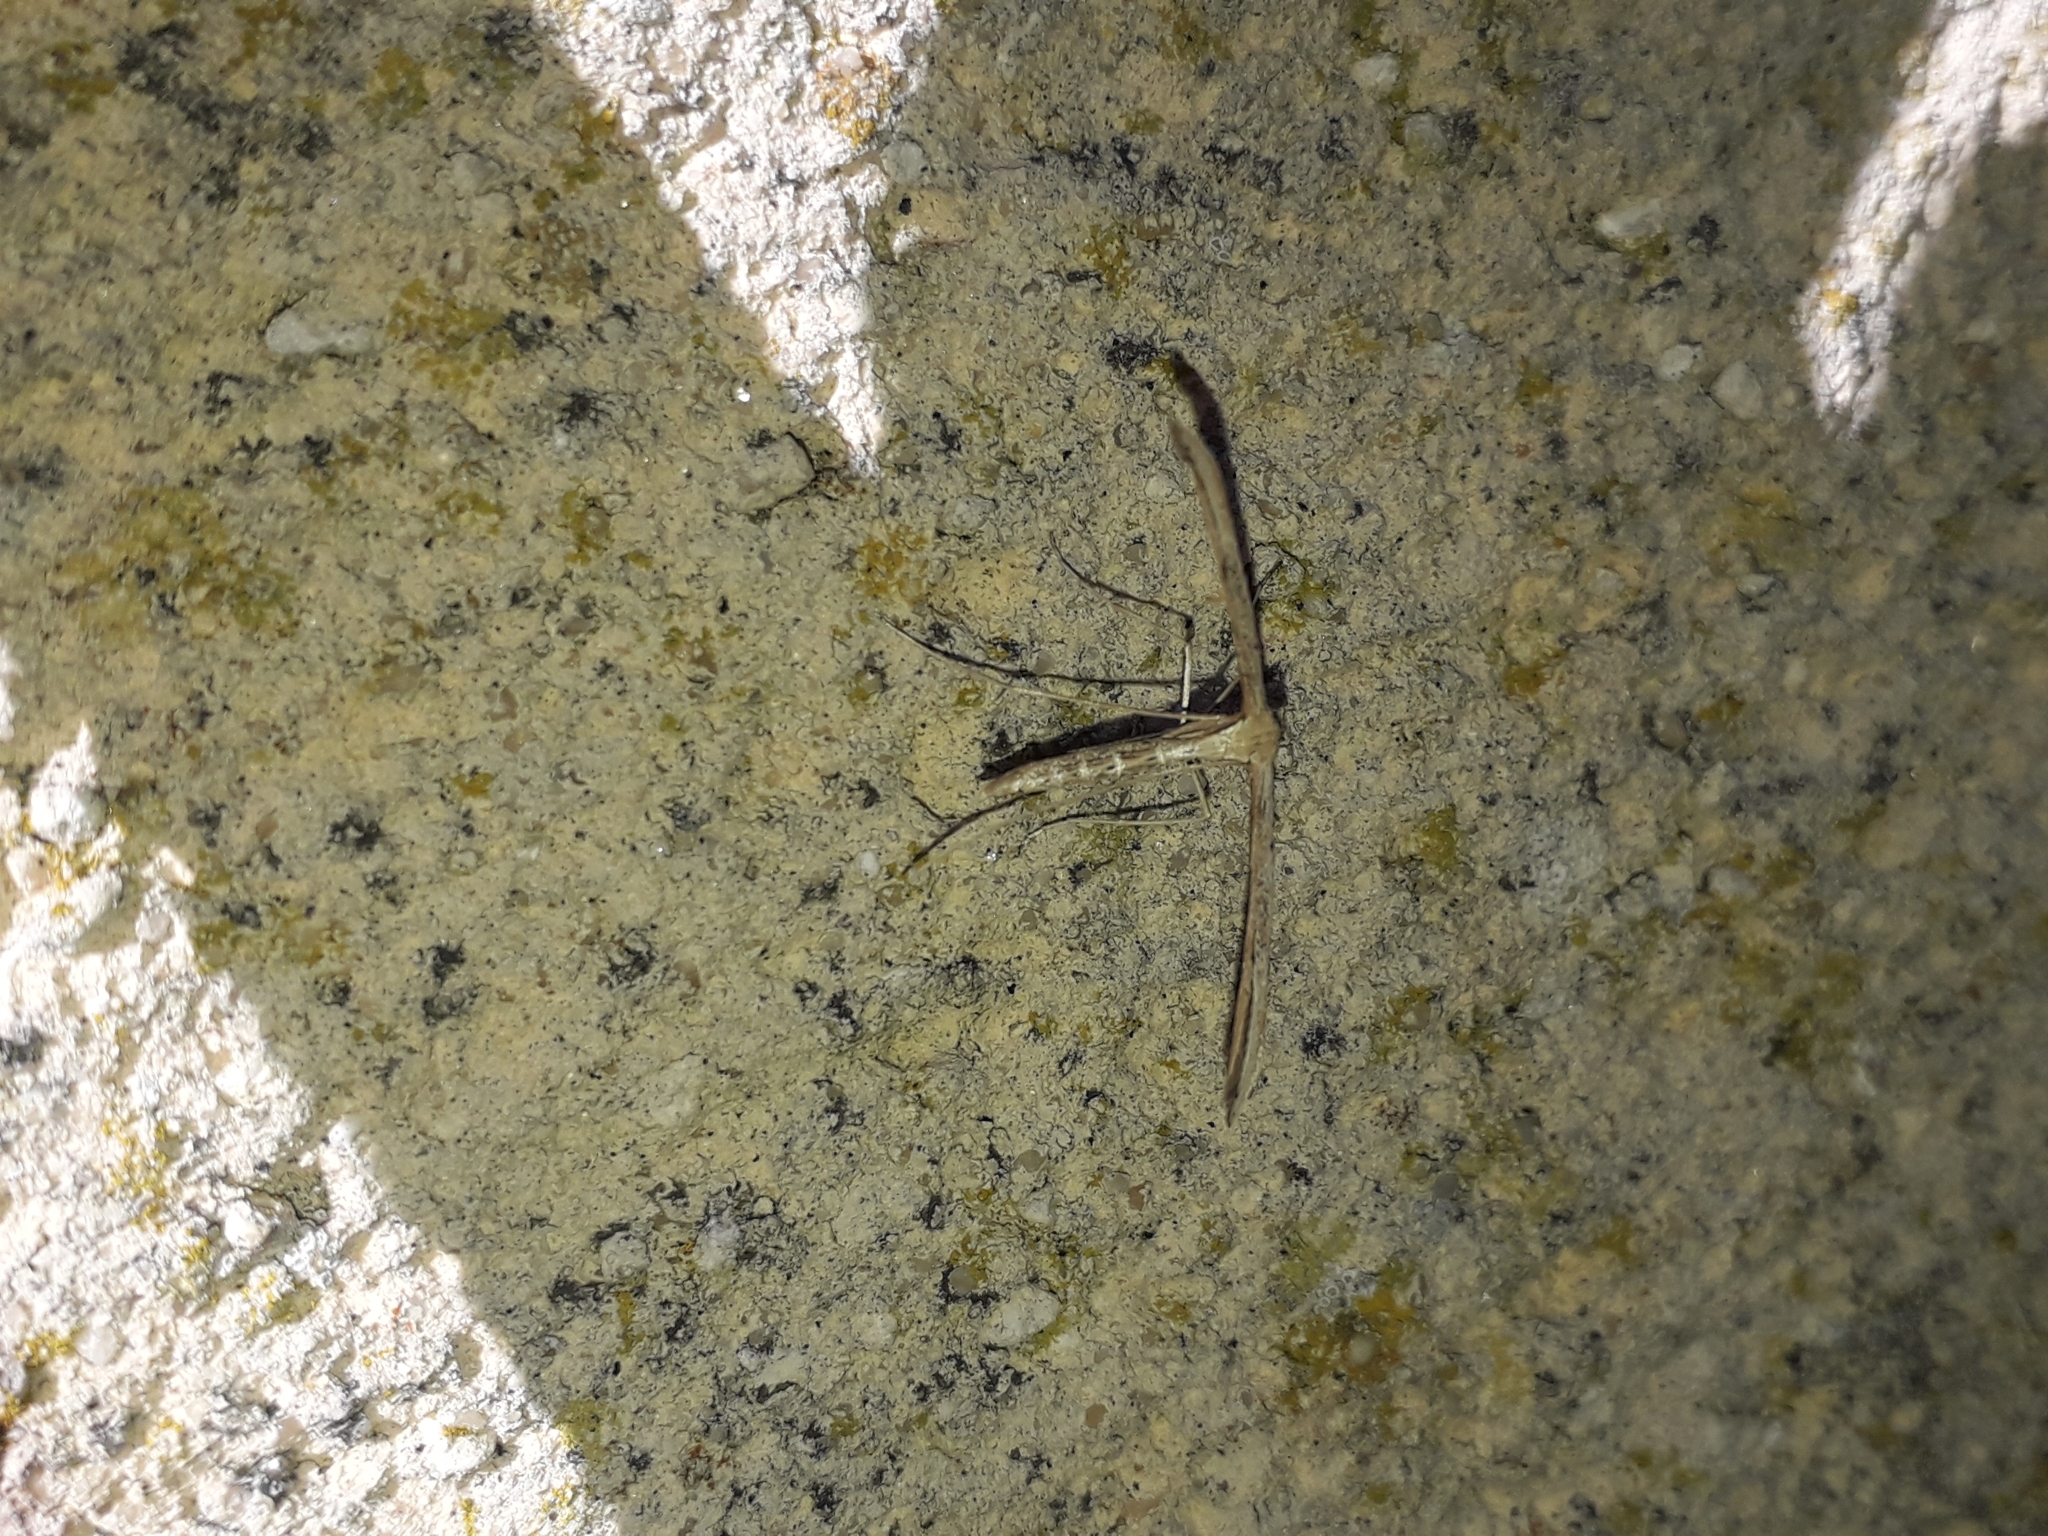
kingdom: Animalia
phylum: Arthropoda
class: Insecta
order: Lepidoptera
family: Pterophoridae
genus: Emmelina
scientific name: Emmelina monodactyla
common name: Common plume
